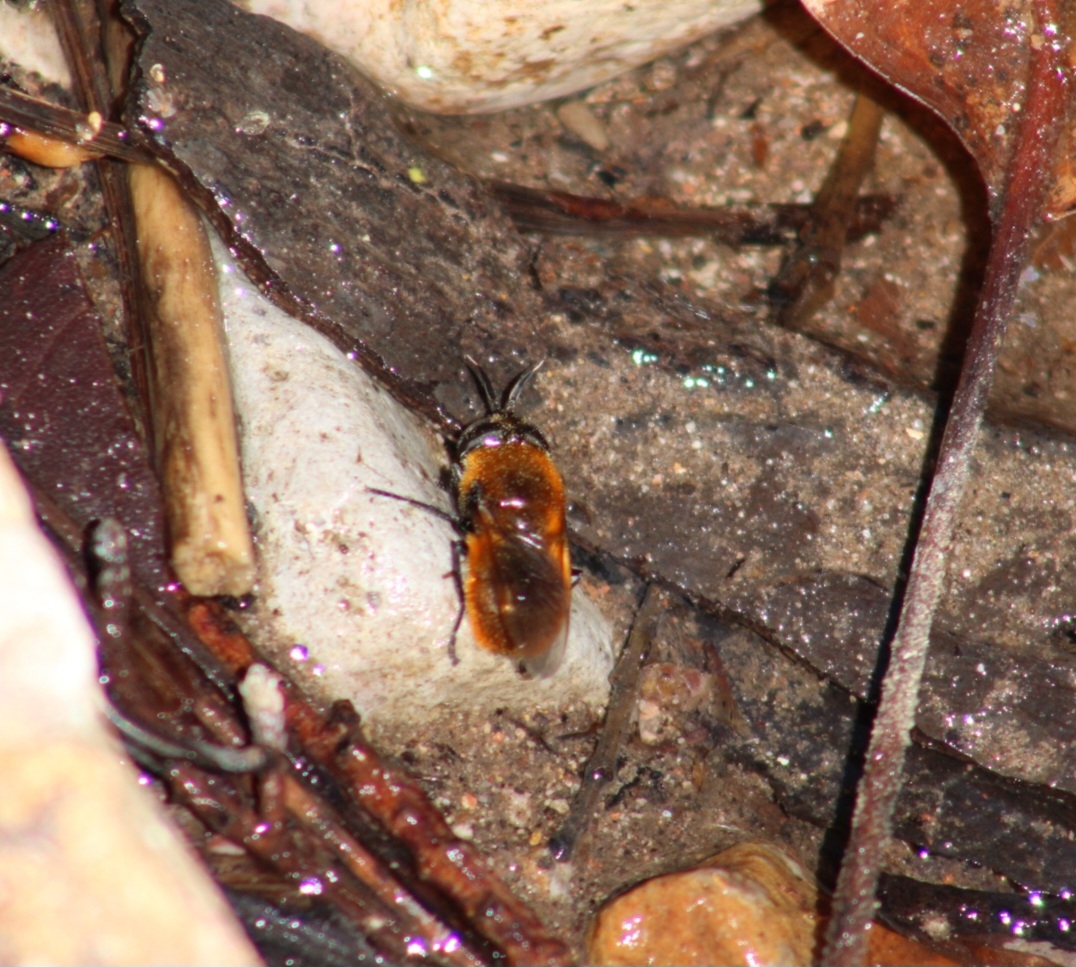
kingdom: Animalia
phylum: Arthropoda
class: Insecta
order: Diptera
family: Syrphidae
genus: Callicera
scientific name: Callicera montensis
